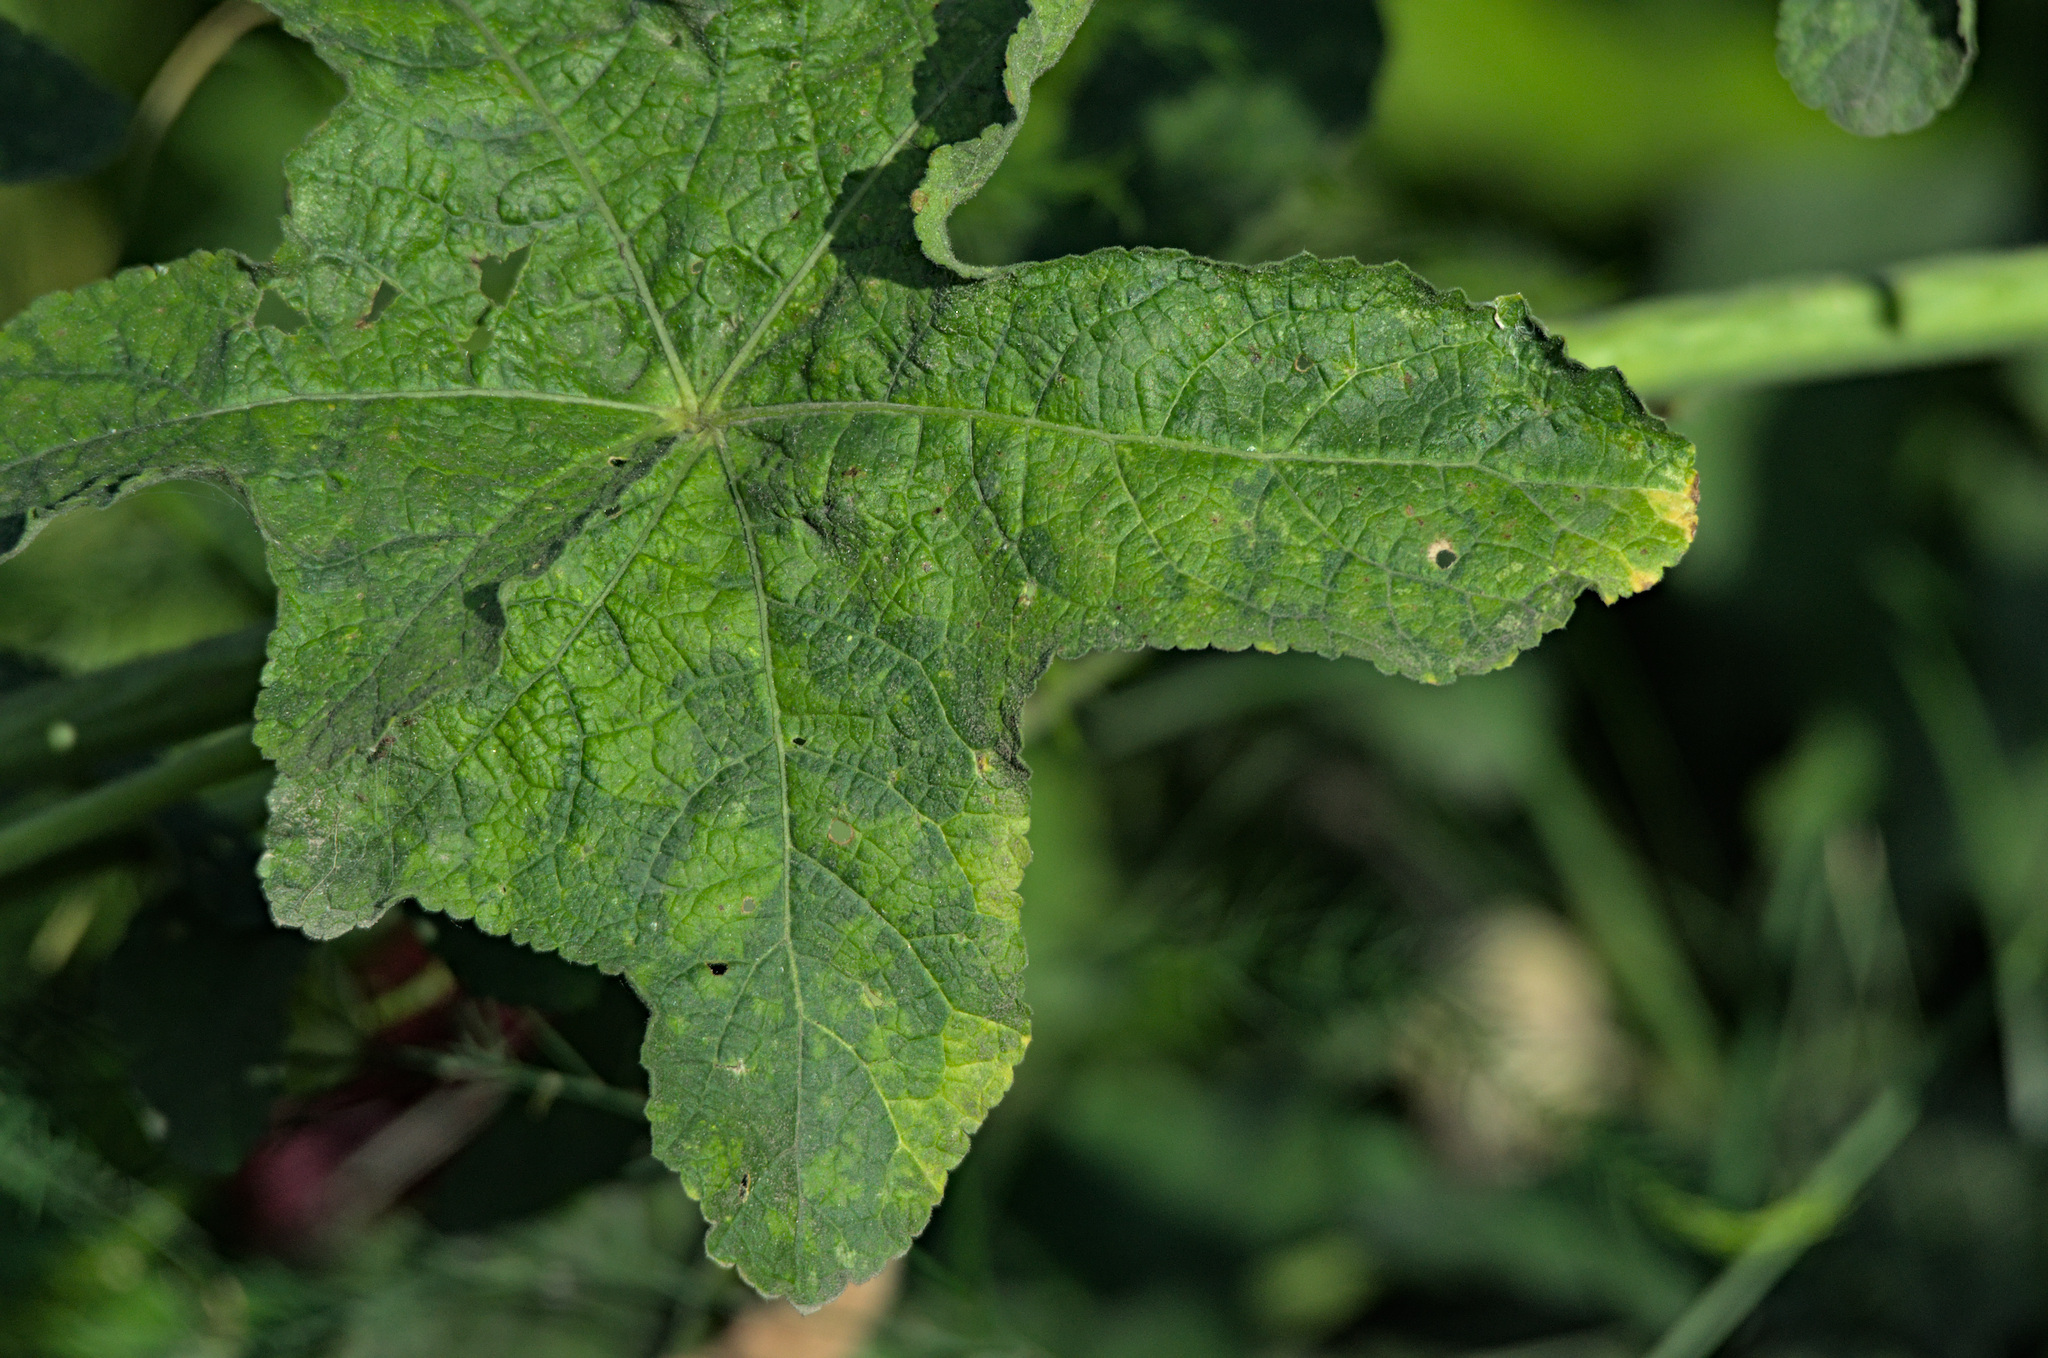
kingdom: Plantae
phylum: Tracheophyta
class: Magnoliopsida
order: Malvales
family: Malvaceae
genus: Alcea
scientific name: Alcea rosea
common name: Hollyhock
